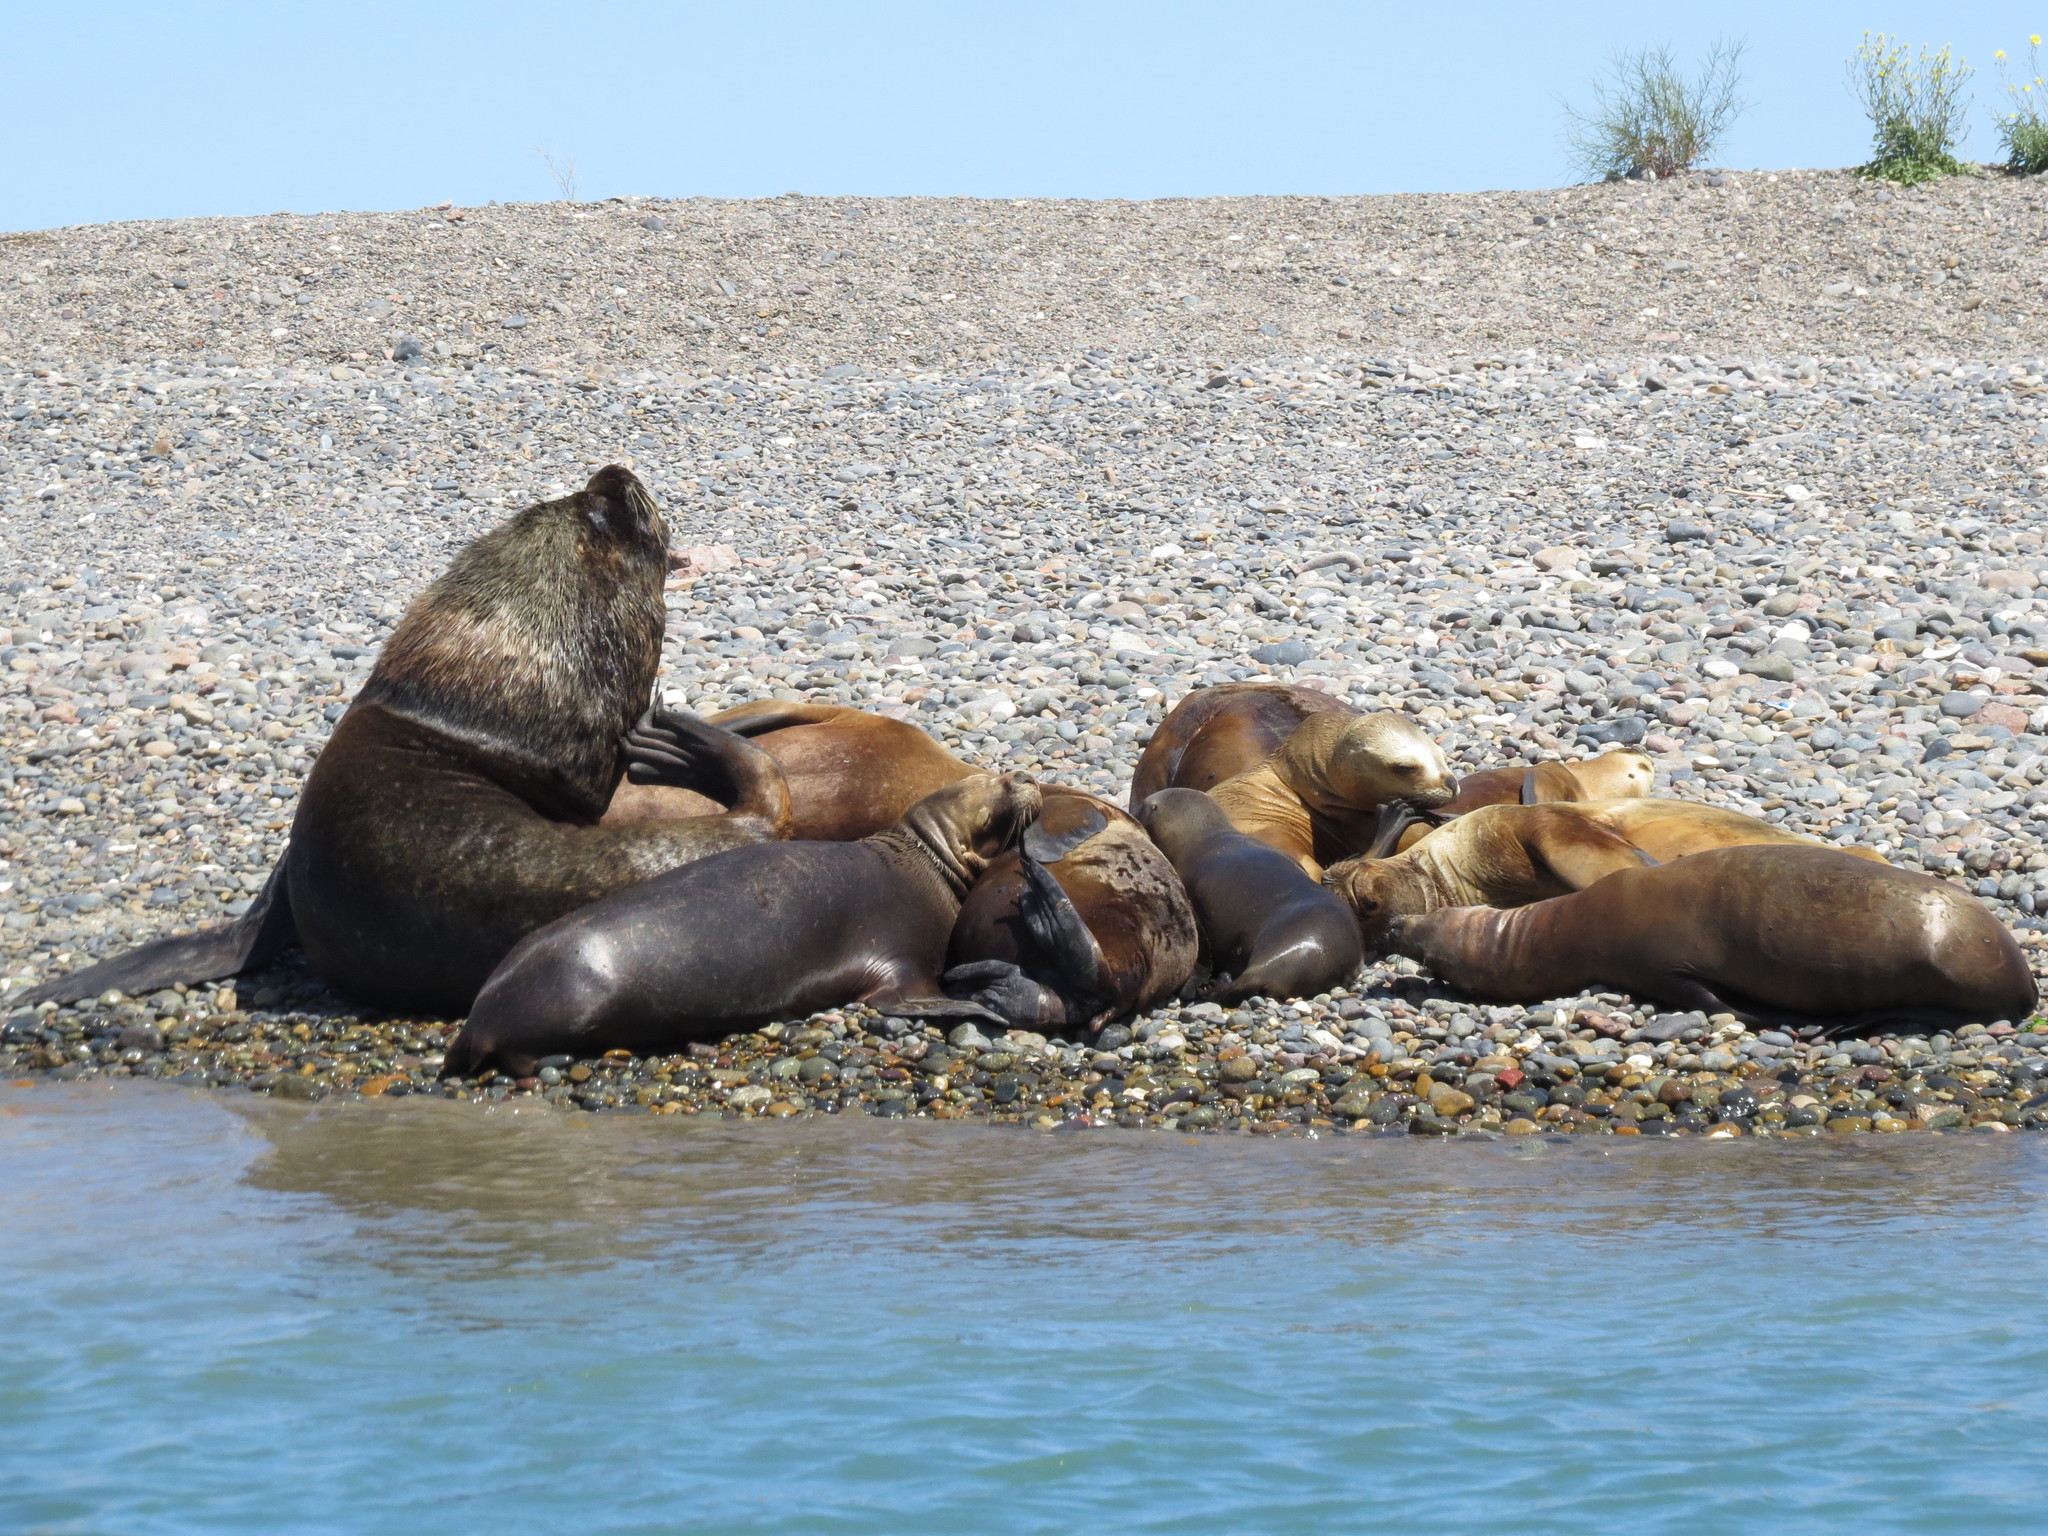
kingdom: Animalia
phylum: Chordata
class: Mammalia
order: Carnivora
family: Otariidae
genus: Otaria
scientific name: Otaria byronia
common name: South american sea lion
